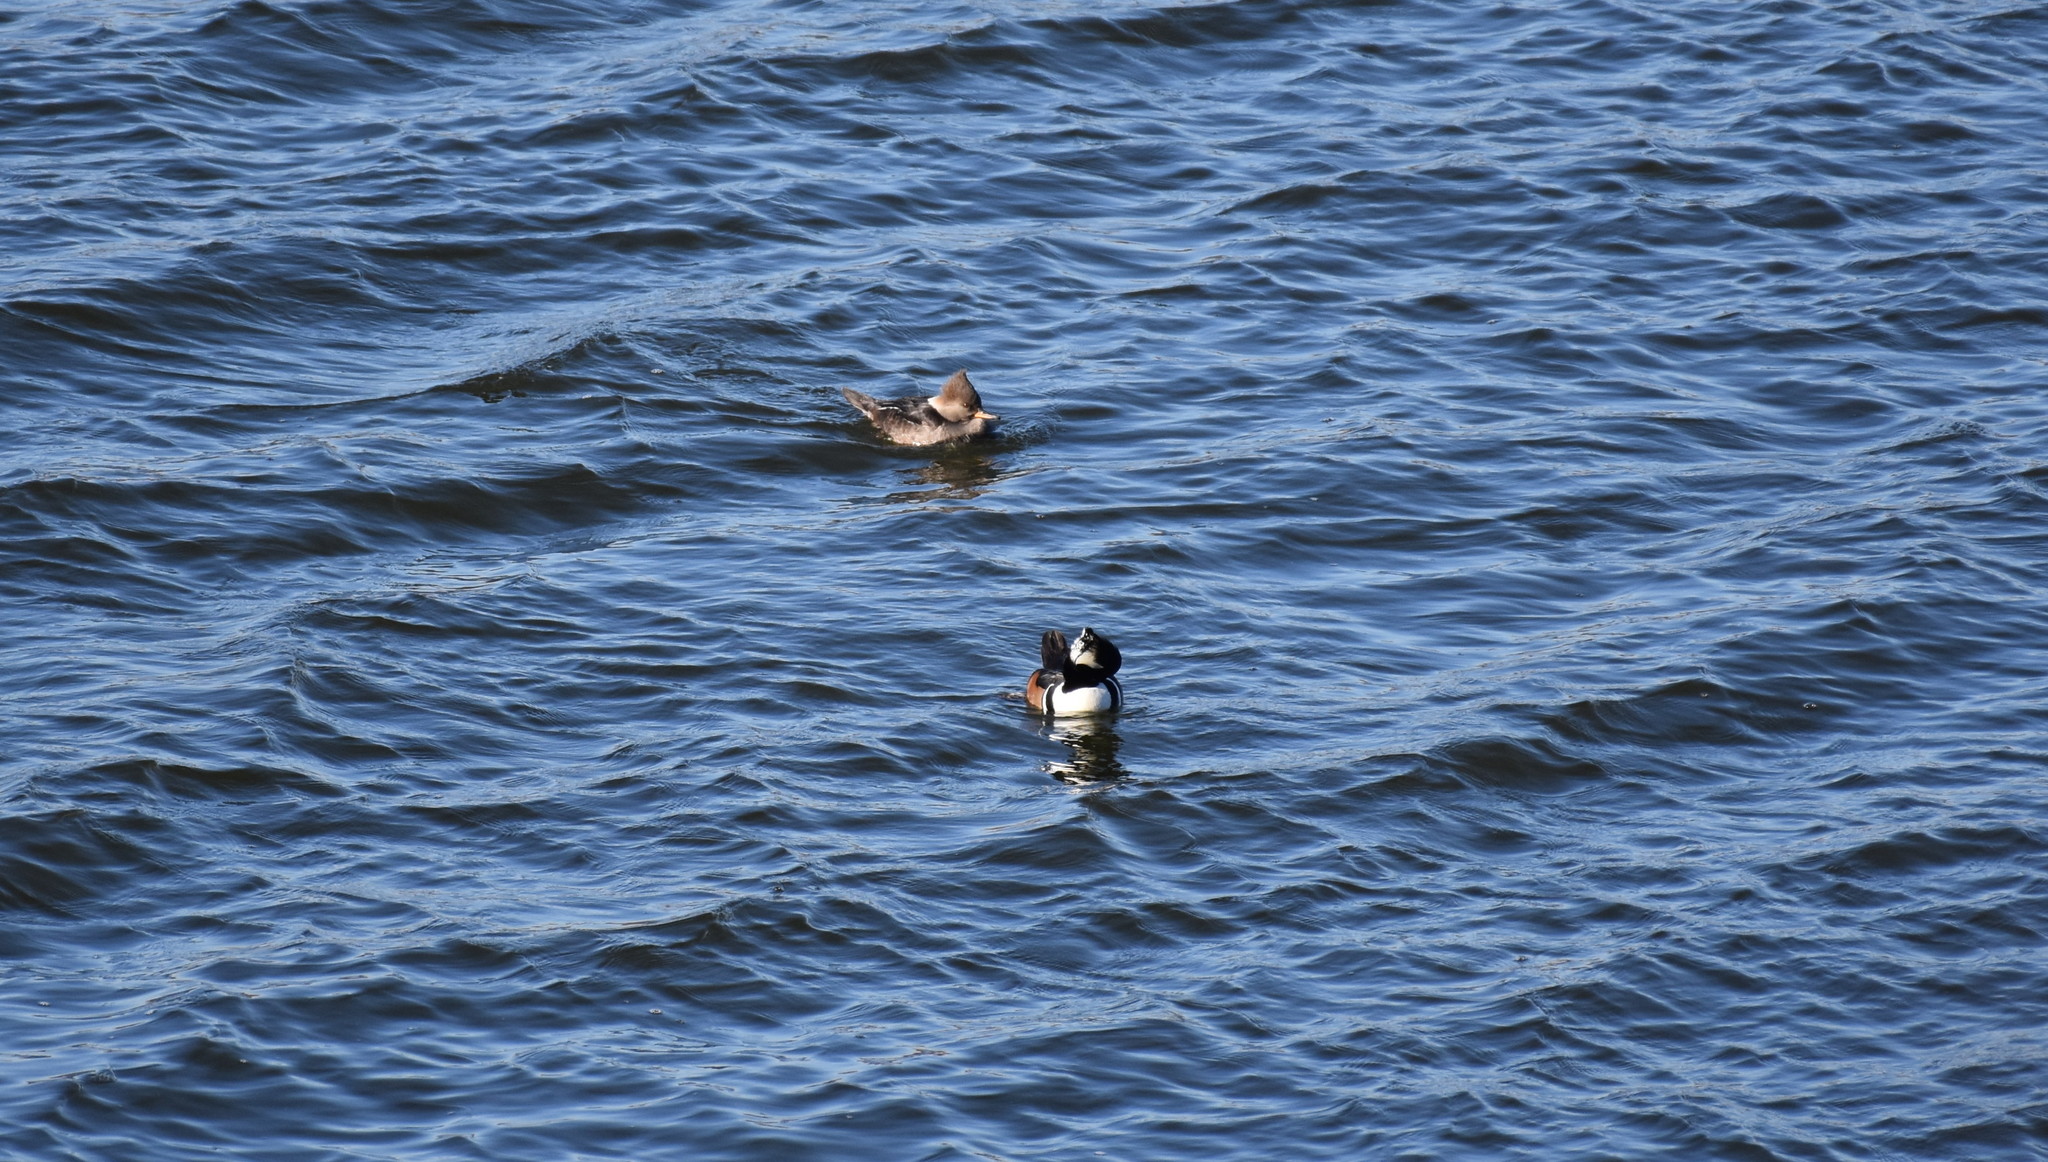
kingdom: Animalia
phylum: Chordata
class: Aves
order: Anseriformes
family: Anatidae
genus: Lophodytes
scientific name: Lophodytes cucullatus
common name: Hooded merganser
